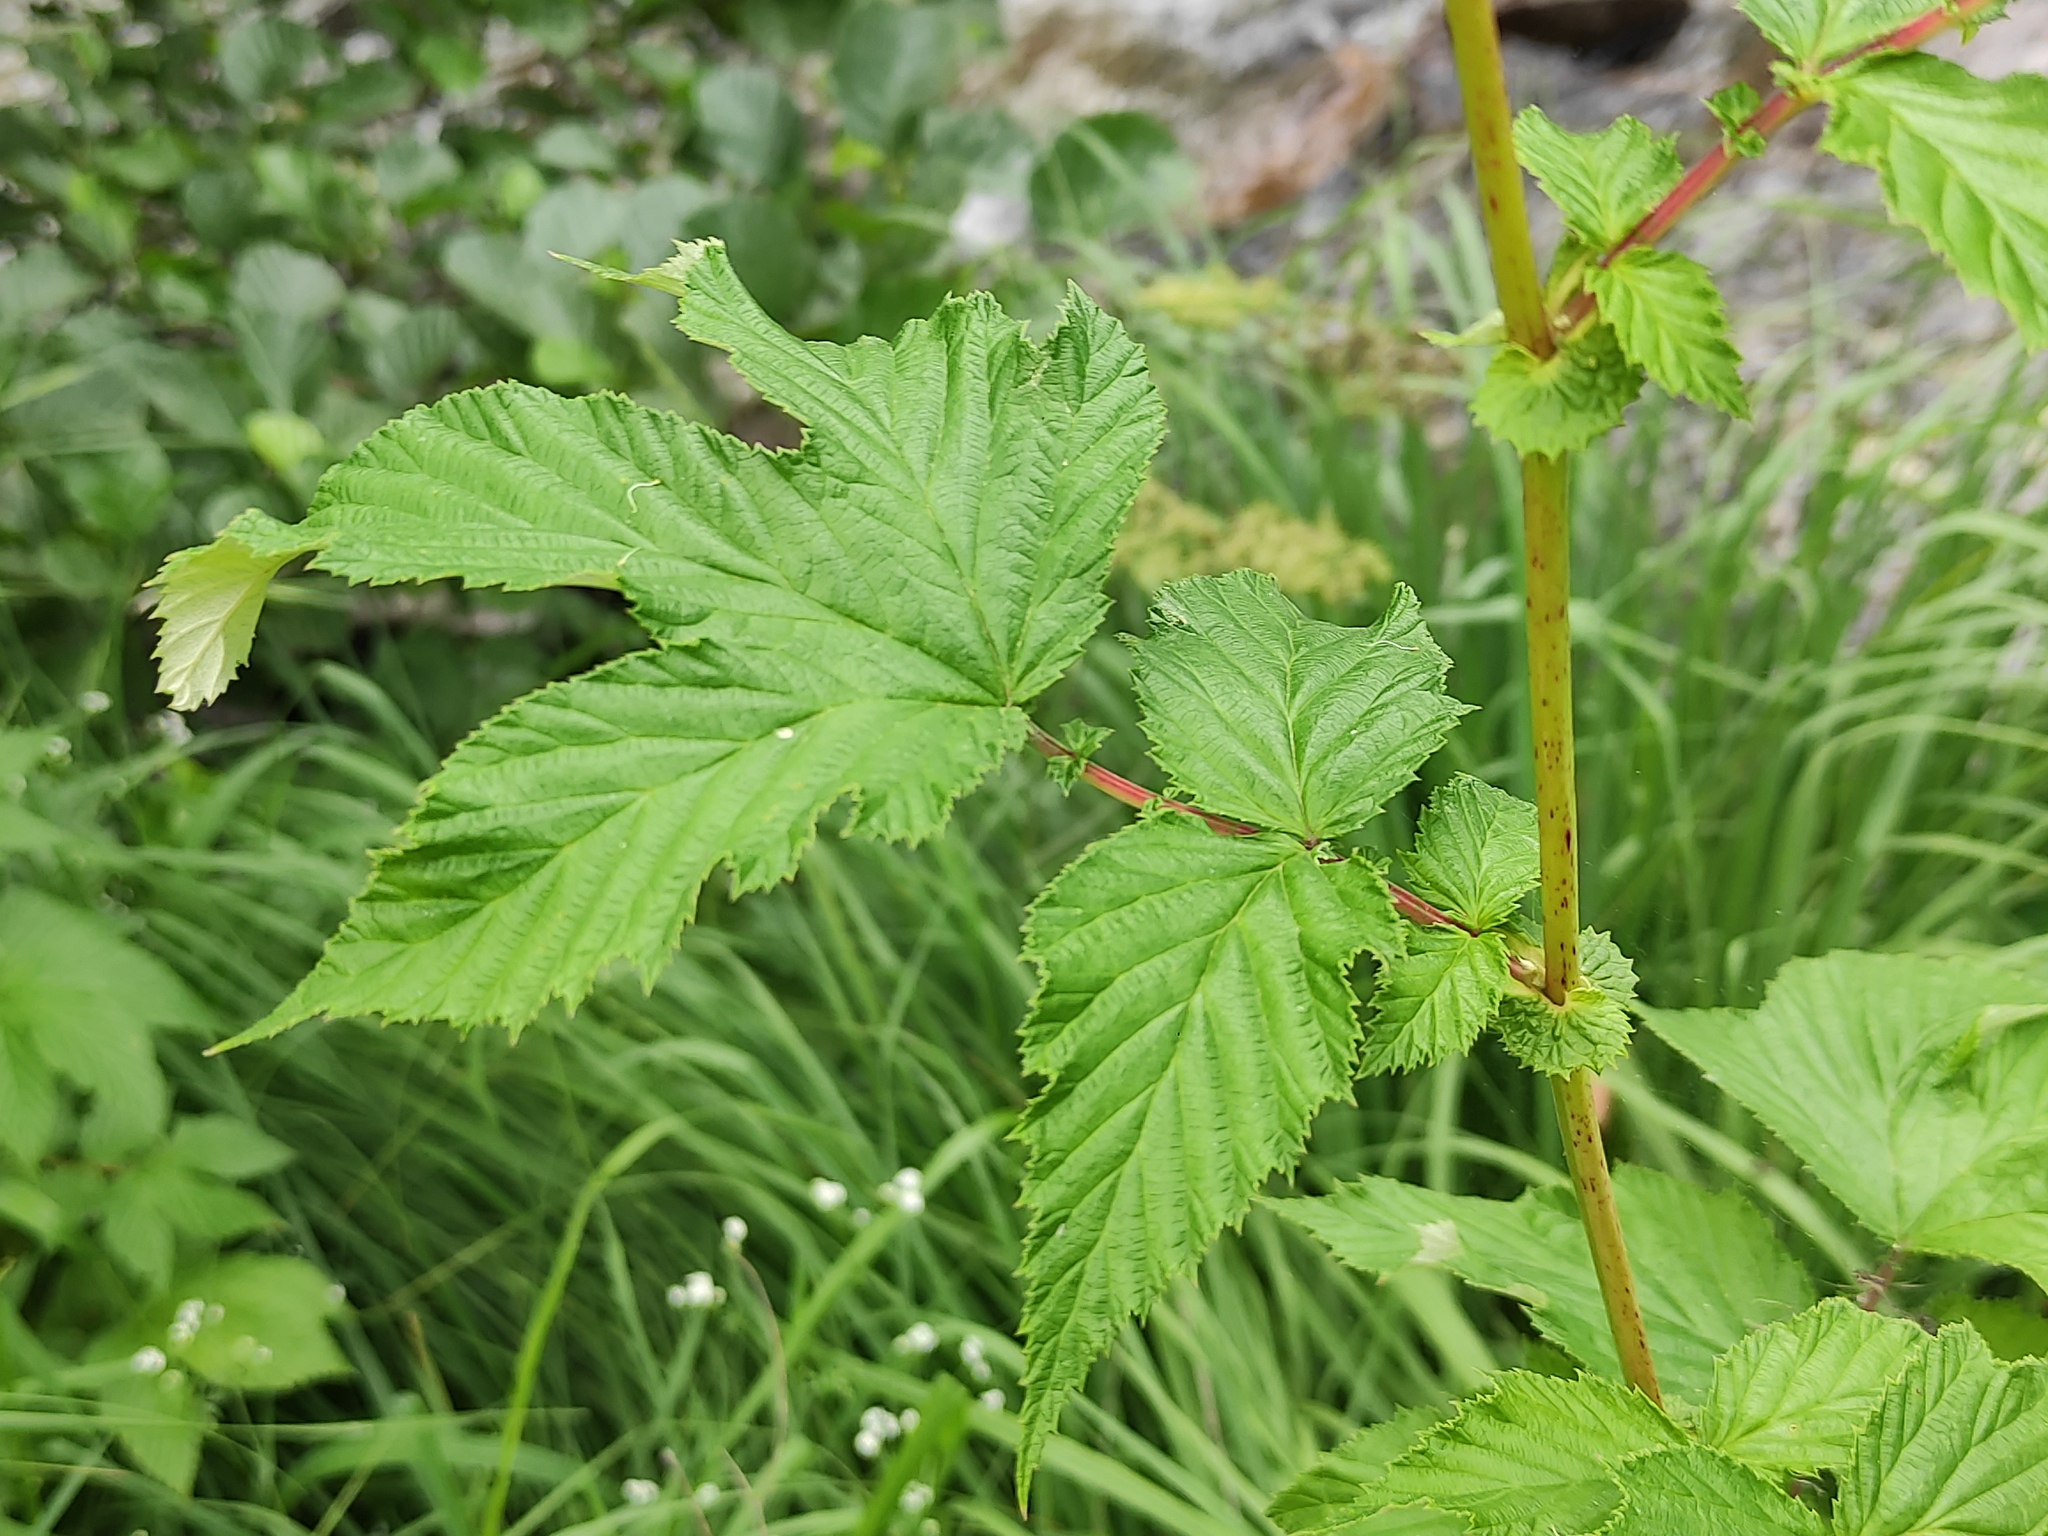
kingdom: Plantae
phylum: Tracheophyta
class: Magnoliopsida
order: Rosales
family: Rosaceae
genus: Filipendula
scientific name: Filipendula ulmaria
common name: Meadowsweet
